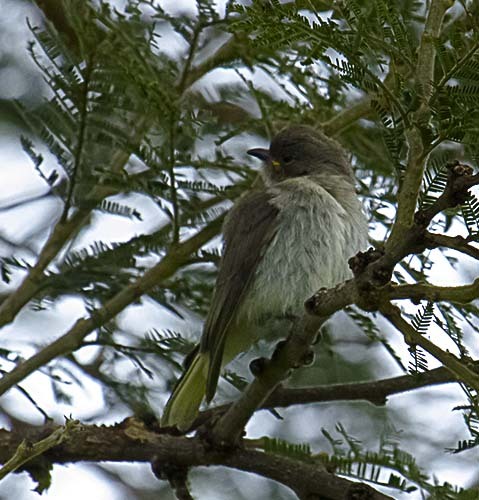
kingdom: Animalia
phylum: Chordata
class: Aves
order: Piciformes
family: Indicatoridae
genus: Prodotiscus
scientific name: Prodotiscus regulus
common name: Brown-backed honeybird
